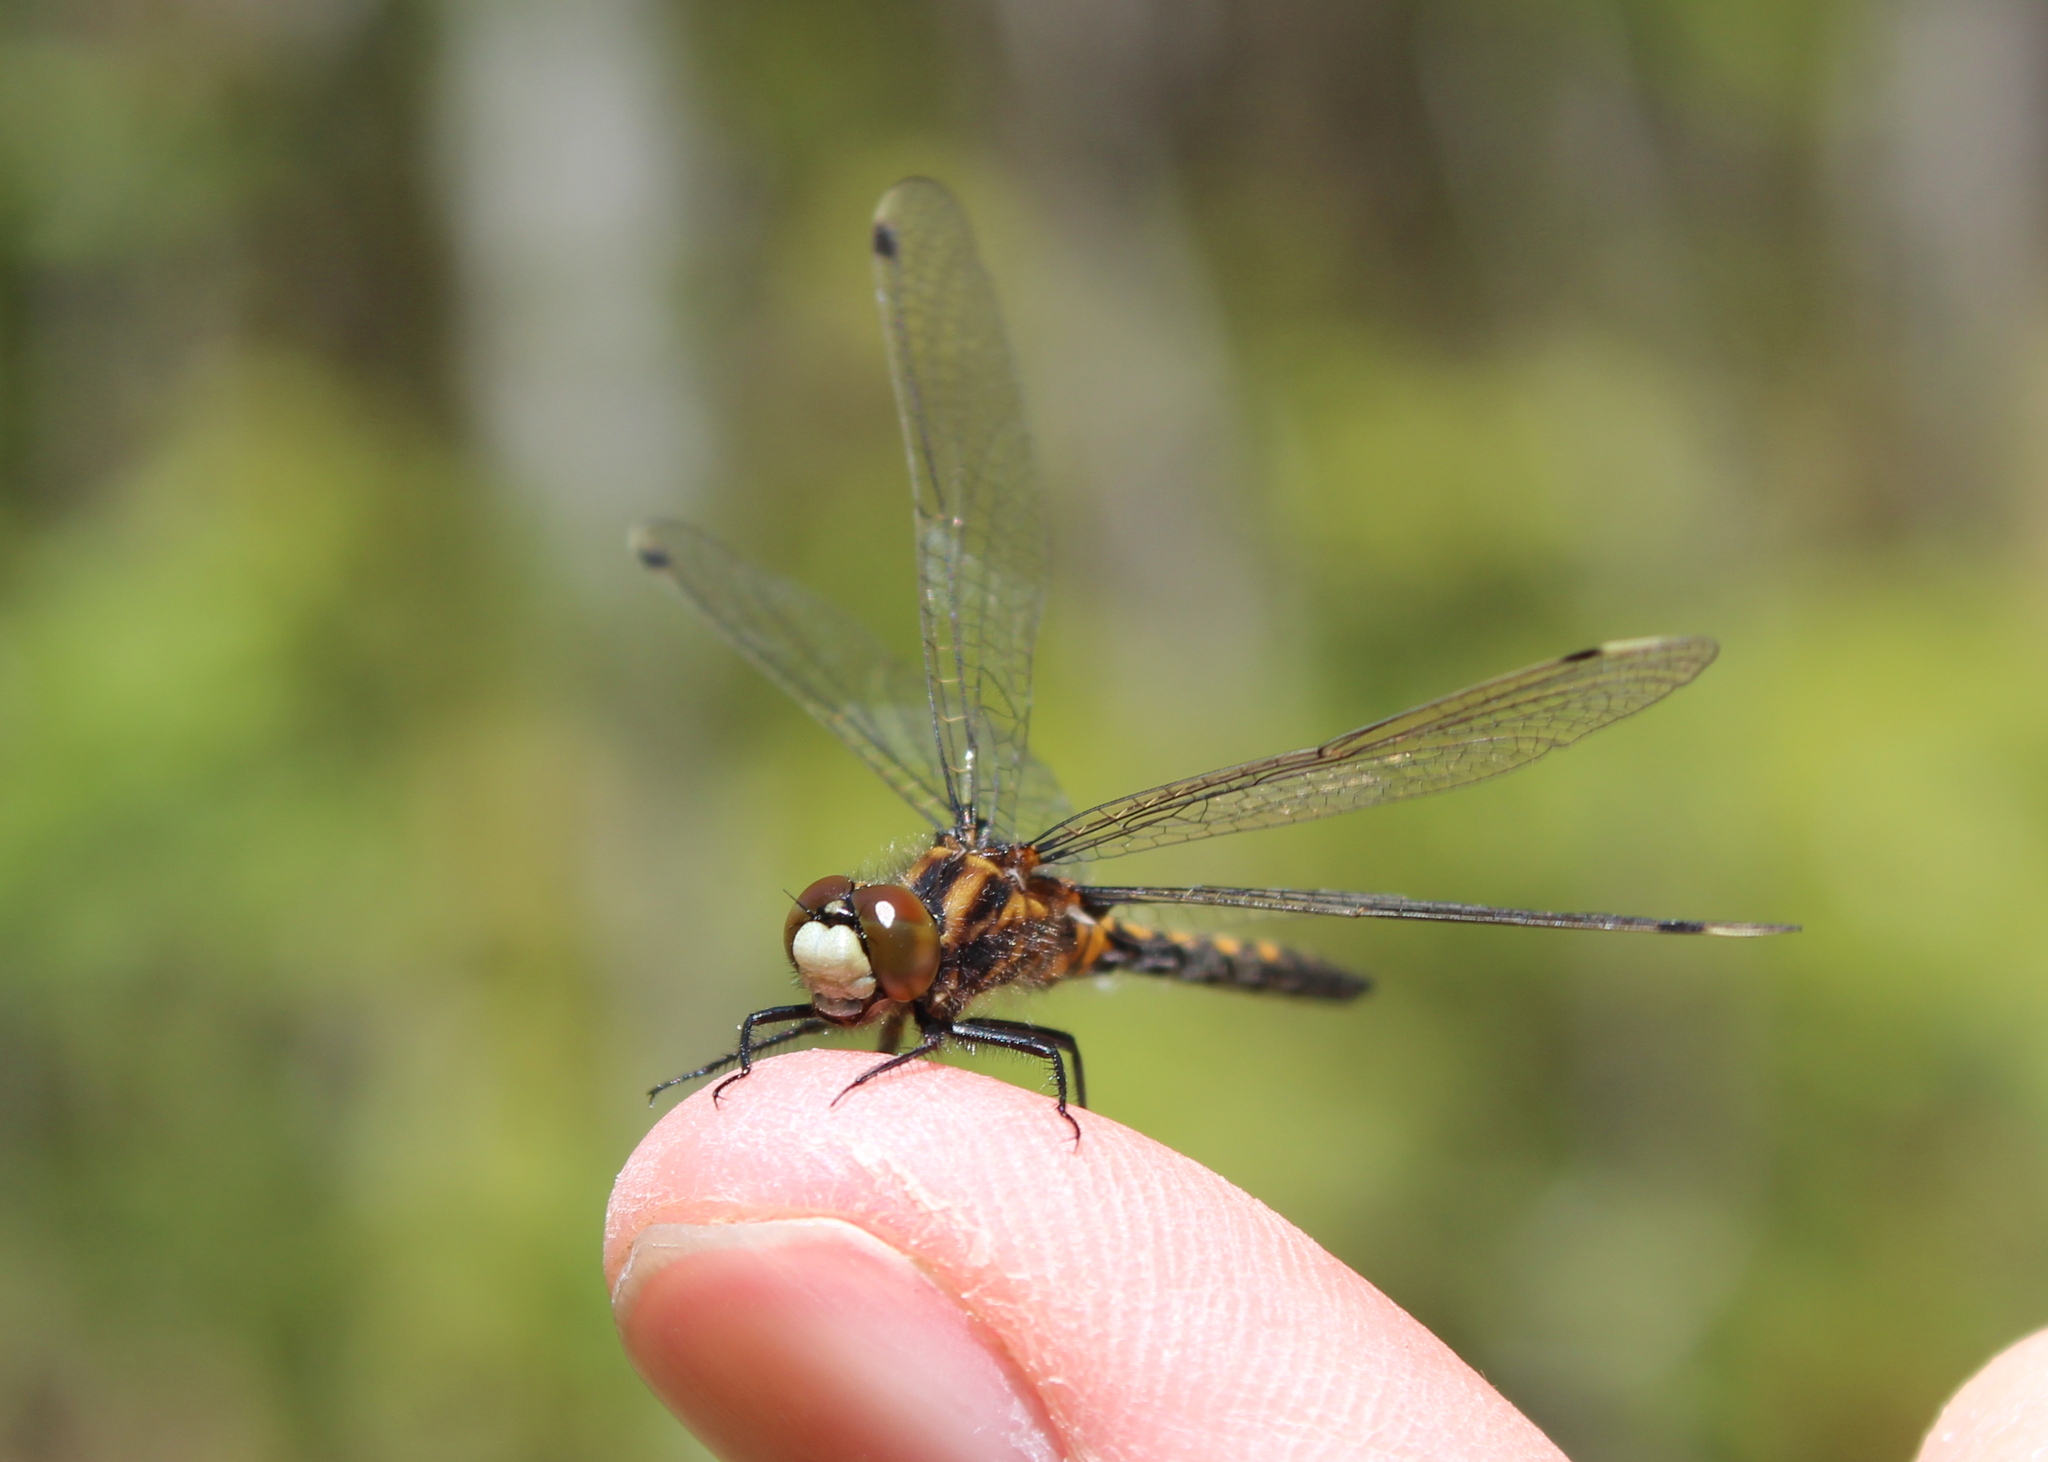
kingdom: Animalia
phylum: Arthropoda
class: Insecta
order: Odonata
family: Libellulidae
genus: Leucorrhinia
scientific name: Leucorrhinia hudsonica
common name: Hudsonian whiteface
